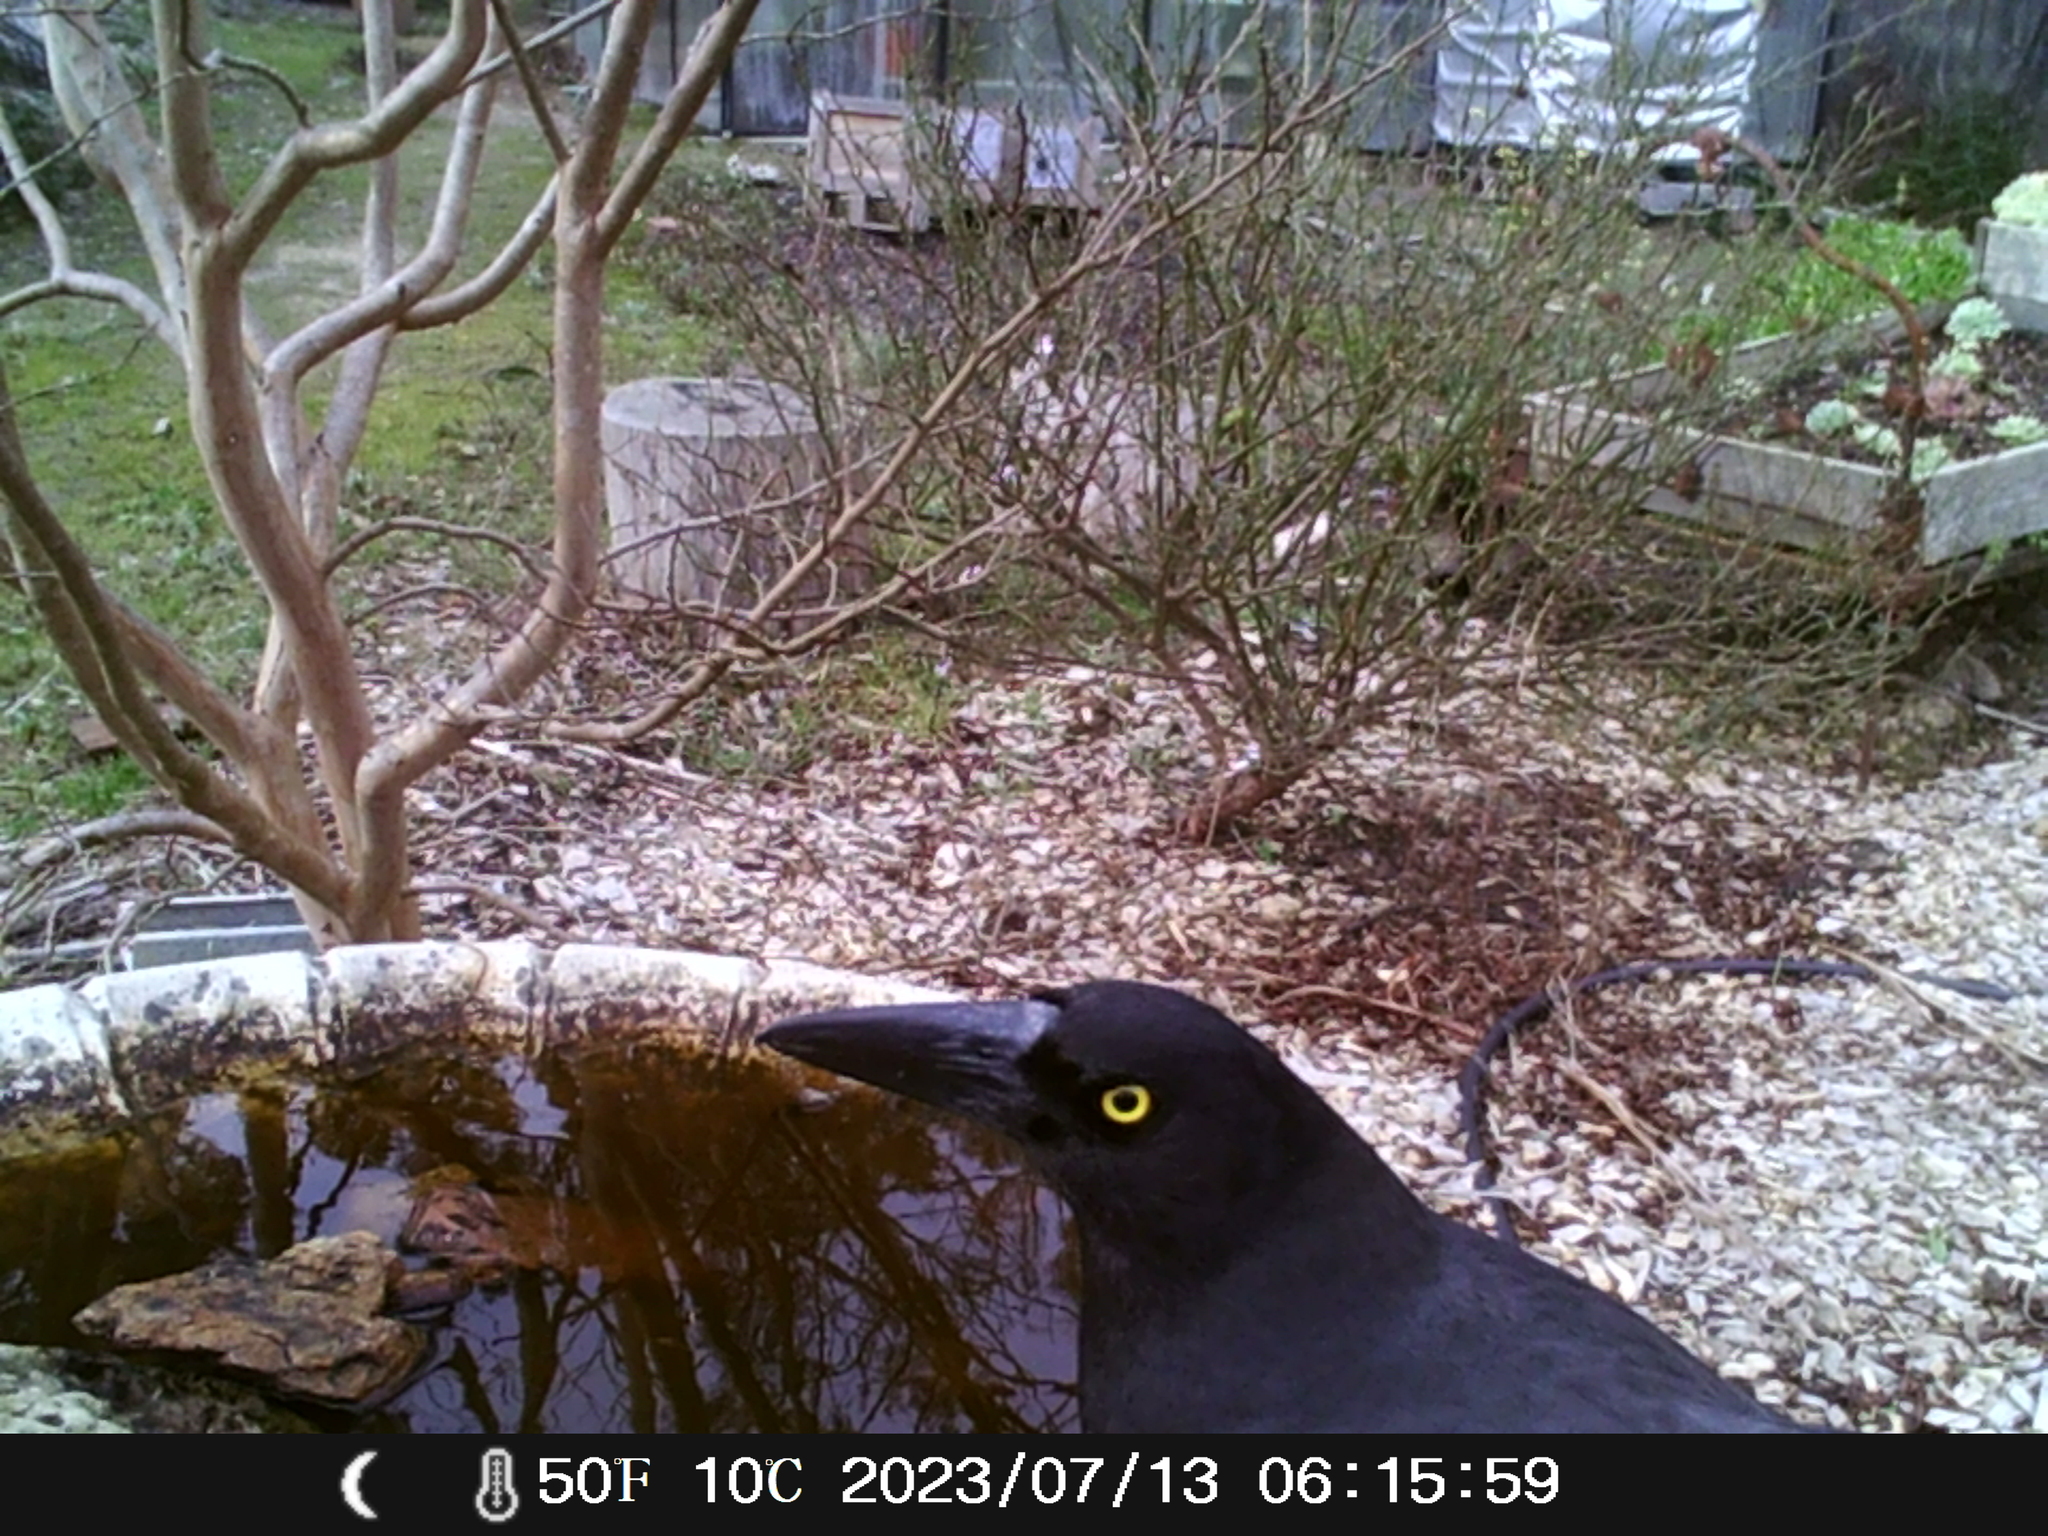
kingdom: Animalia
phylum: Chordata
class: Aves
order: Passeriformes
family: Cracticidae
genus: Strepera
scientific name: Strepera graculina
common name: Pied currawong
